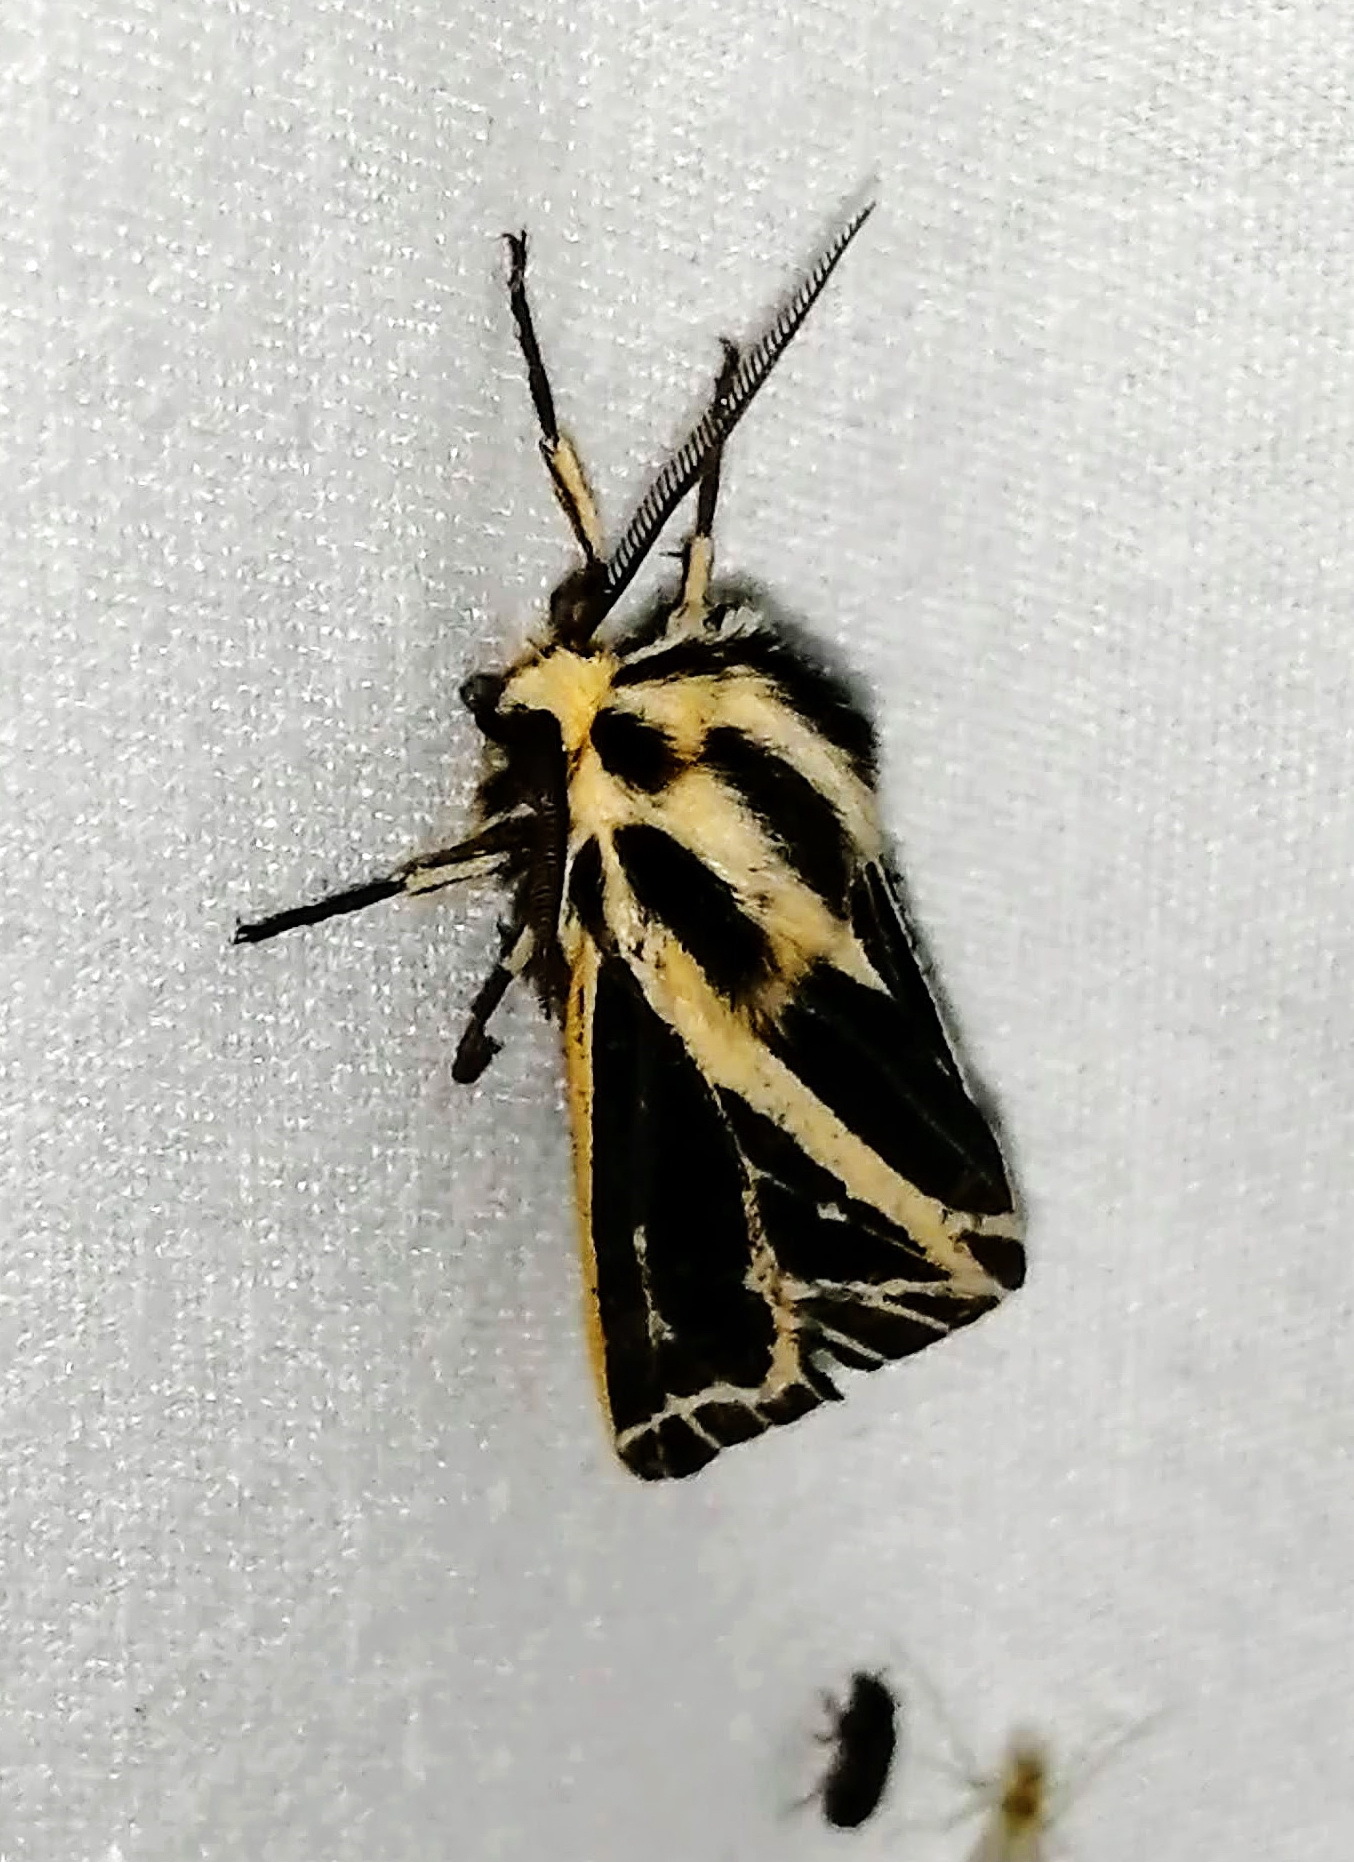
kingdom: Animalia
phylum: Arthropoda
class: Insecta
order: Lepidoptera
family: Erebidae
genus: Grammia
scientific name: Grammia virguncula
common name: Little tiger moth
